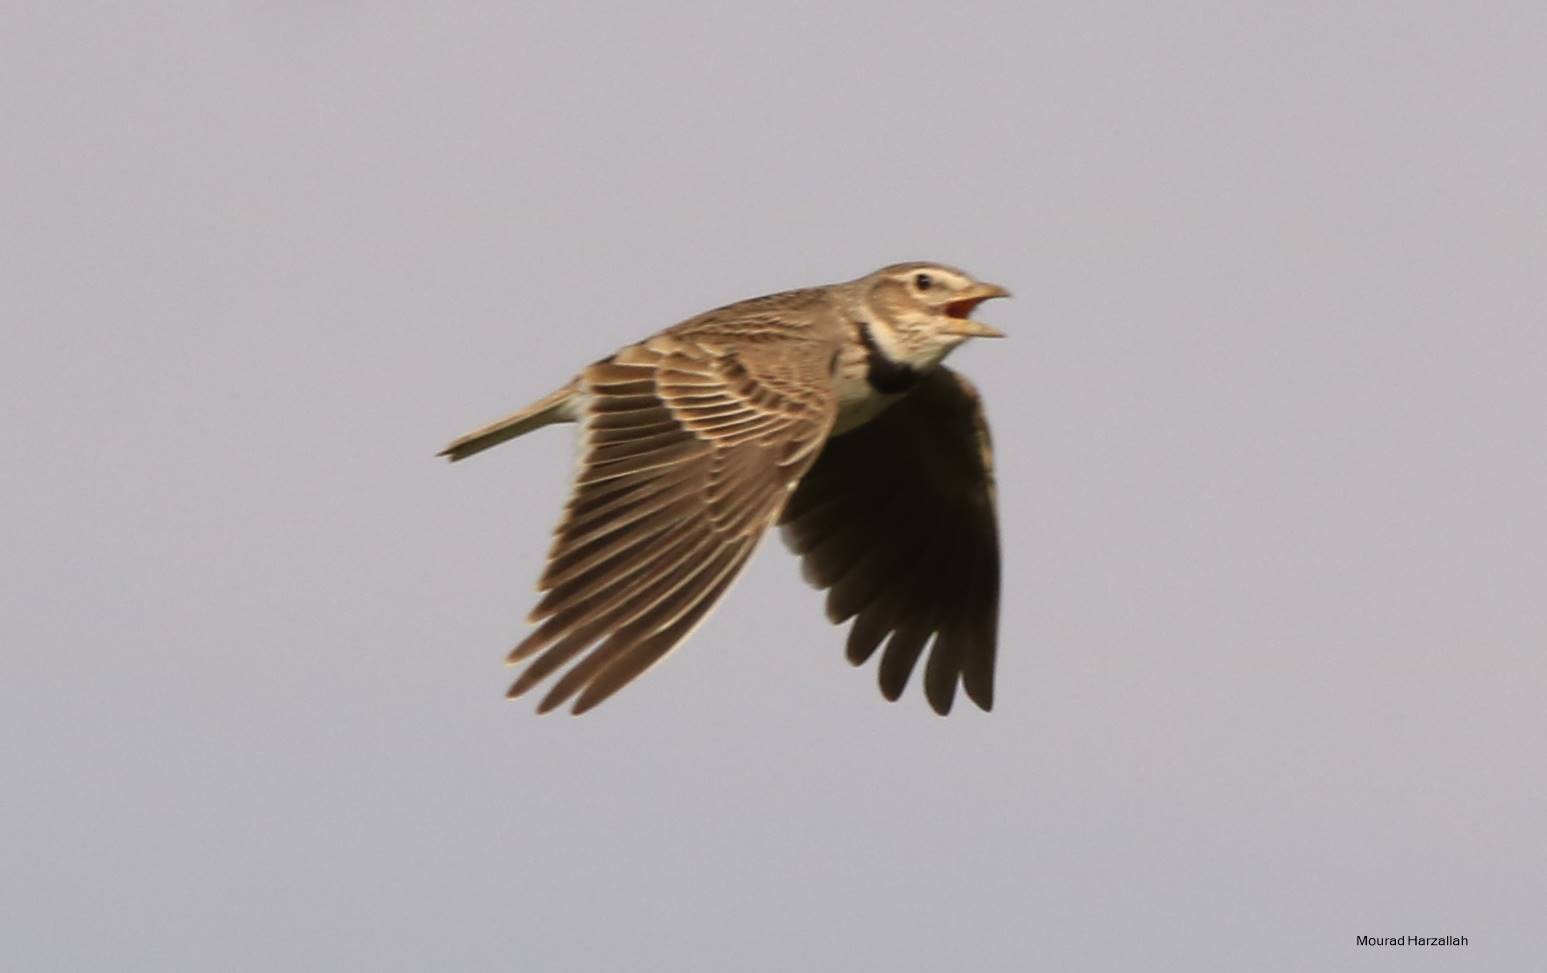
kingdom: Animalia
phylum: Chordata
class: Aves
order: Passeriformes
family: Alaudidae
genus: Melanocorypha
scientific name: Melanocorypha calandra
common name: Calandra lark
